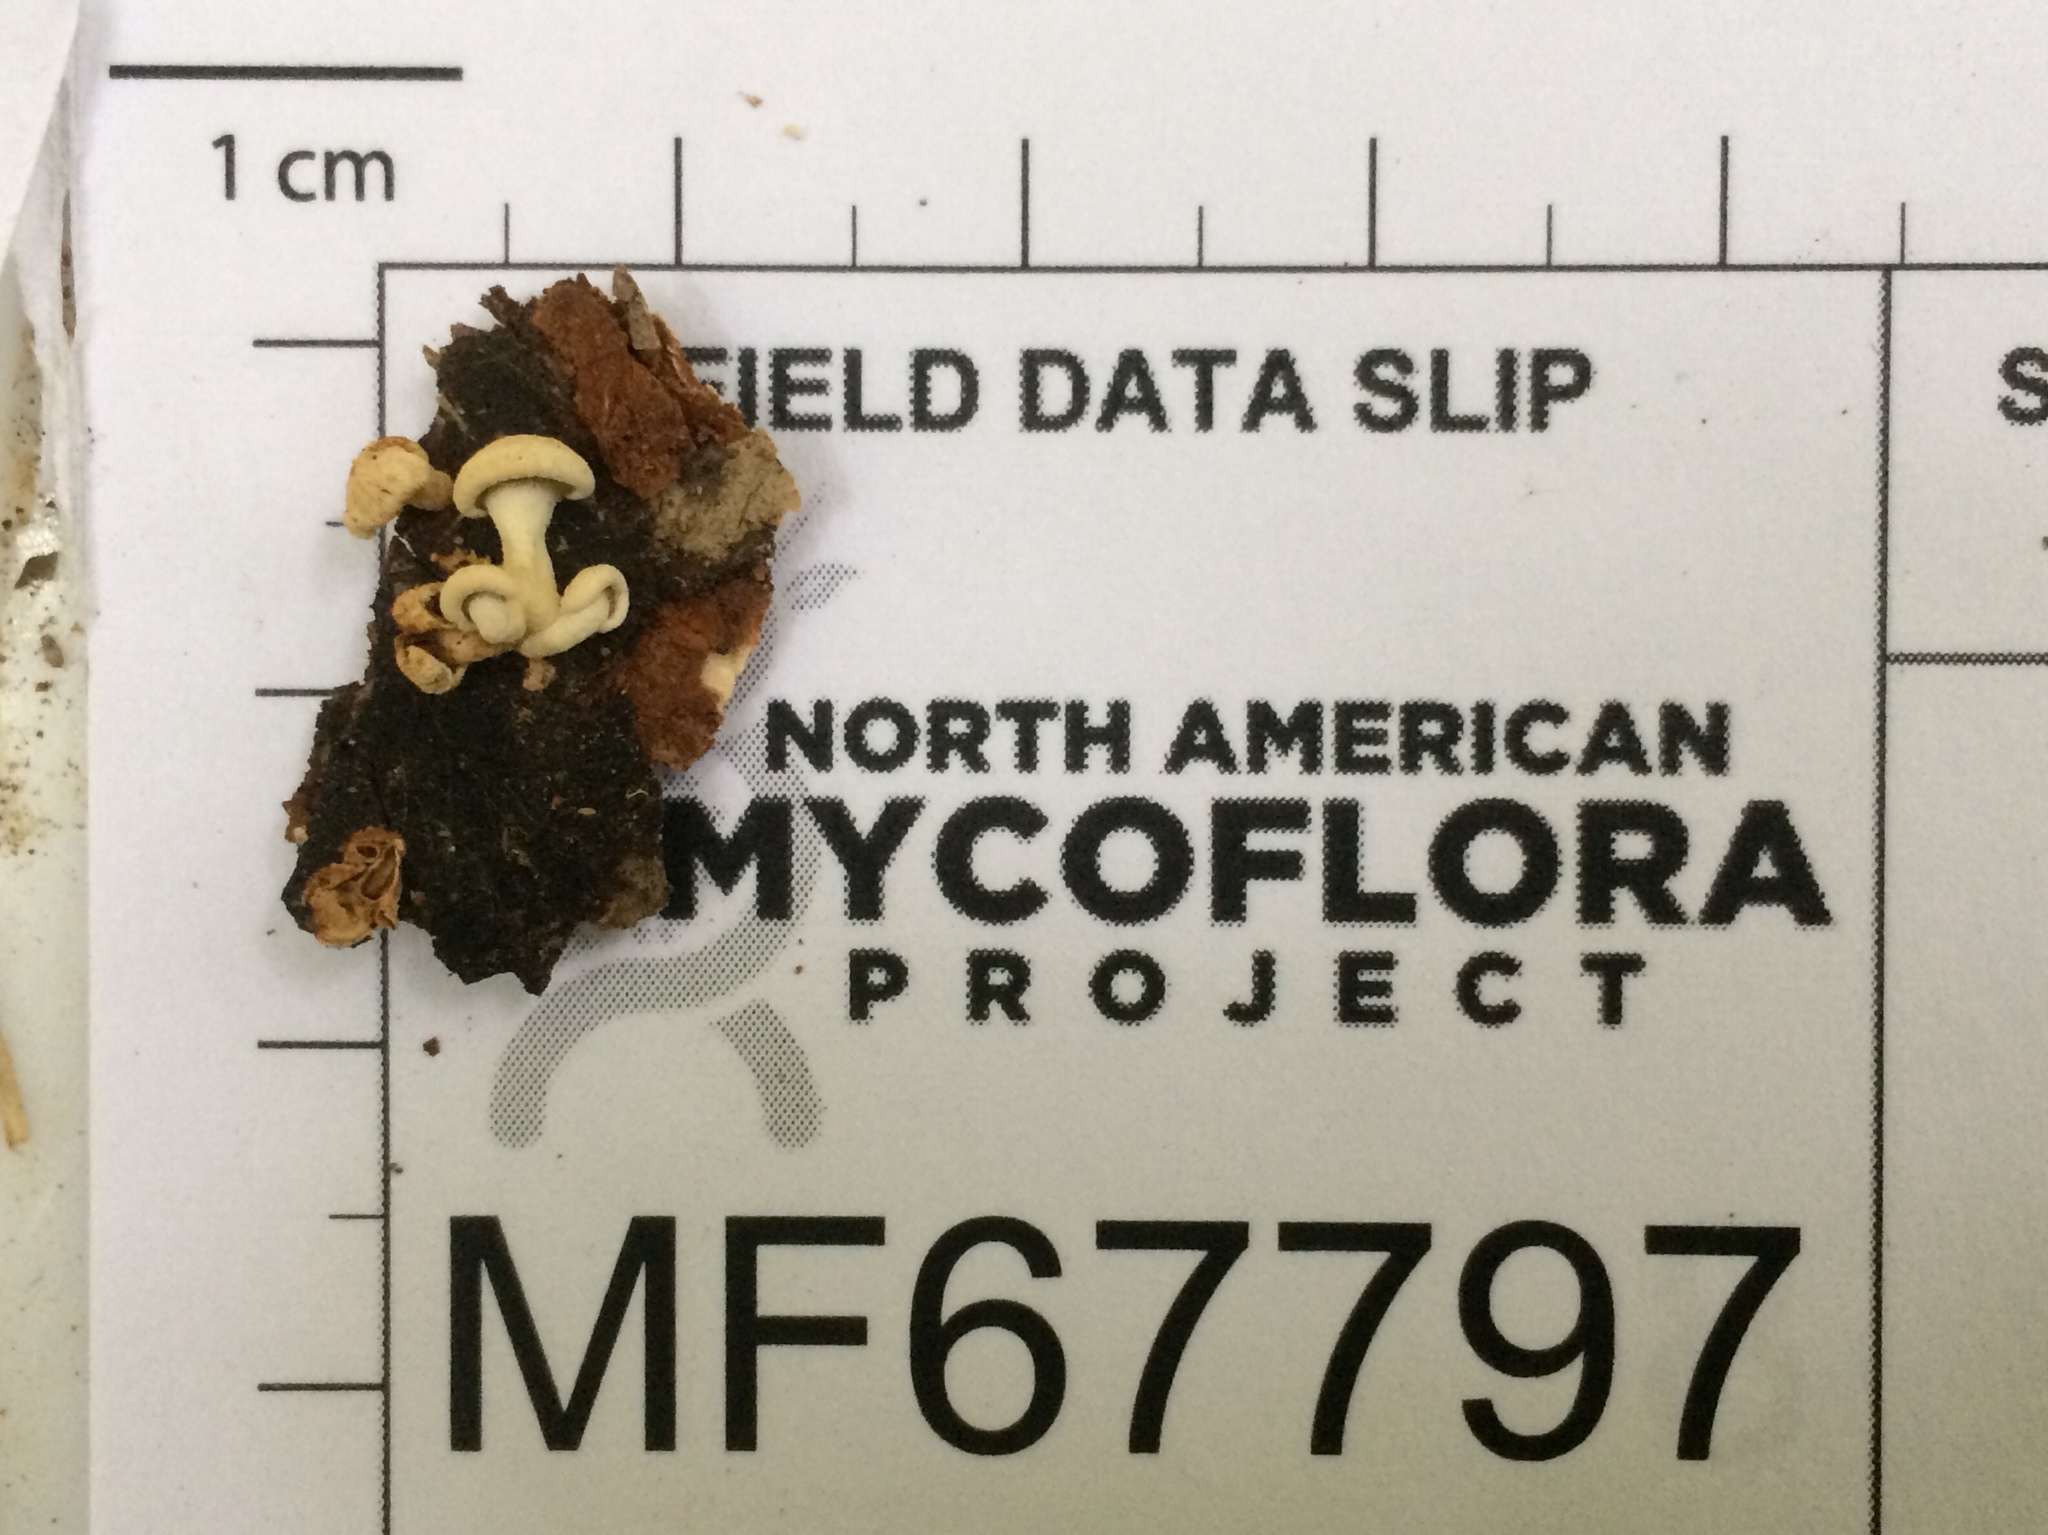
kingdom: Fungi
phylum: Basidiomycota
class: Agaricomycetes
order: Agaricales
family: Mycenaceae
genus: Panellus
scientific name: Panellus stipticus
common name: Bitter oysterling
